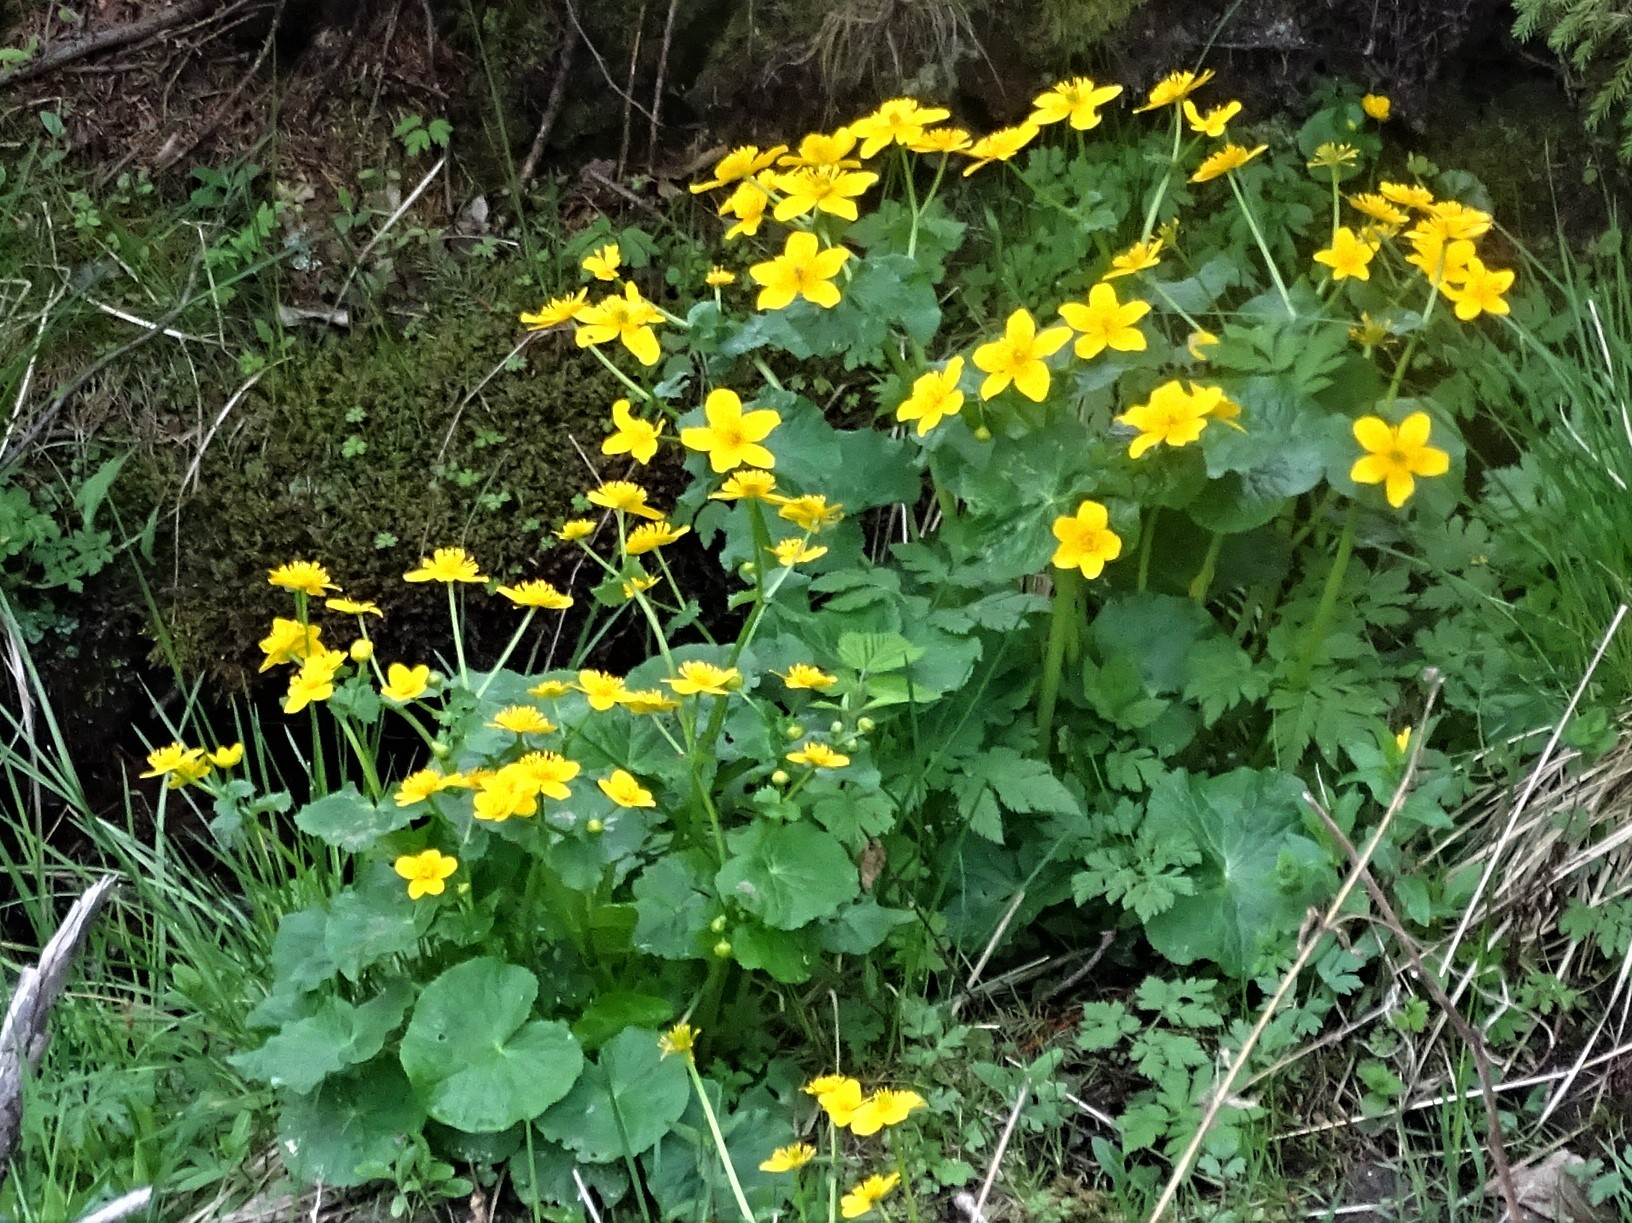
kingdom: Plantae
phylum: Tracheophyta
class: Magnoliopsida
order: Ranunculales
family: Ranunculaceae
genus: Caltha
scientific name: Caltha palustris
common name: Marsh marigold
